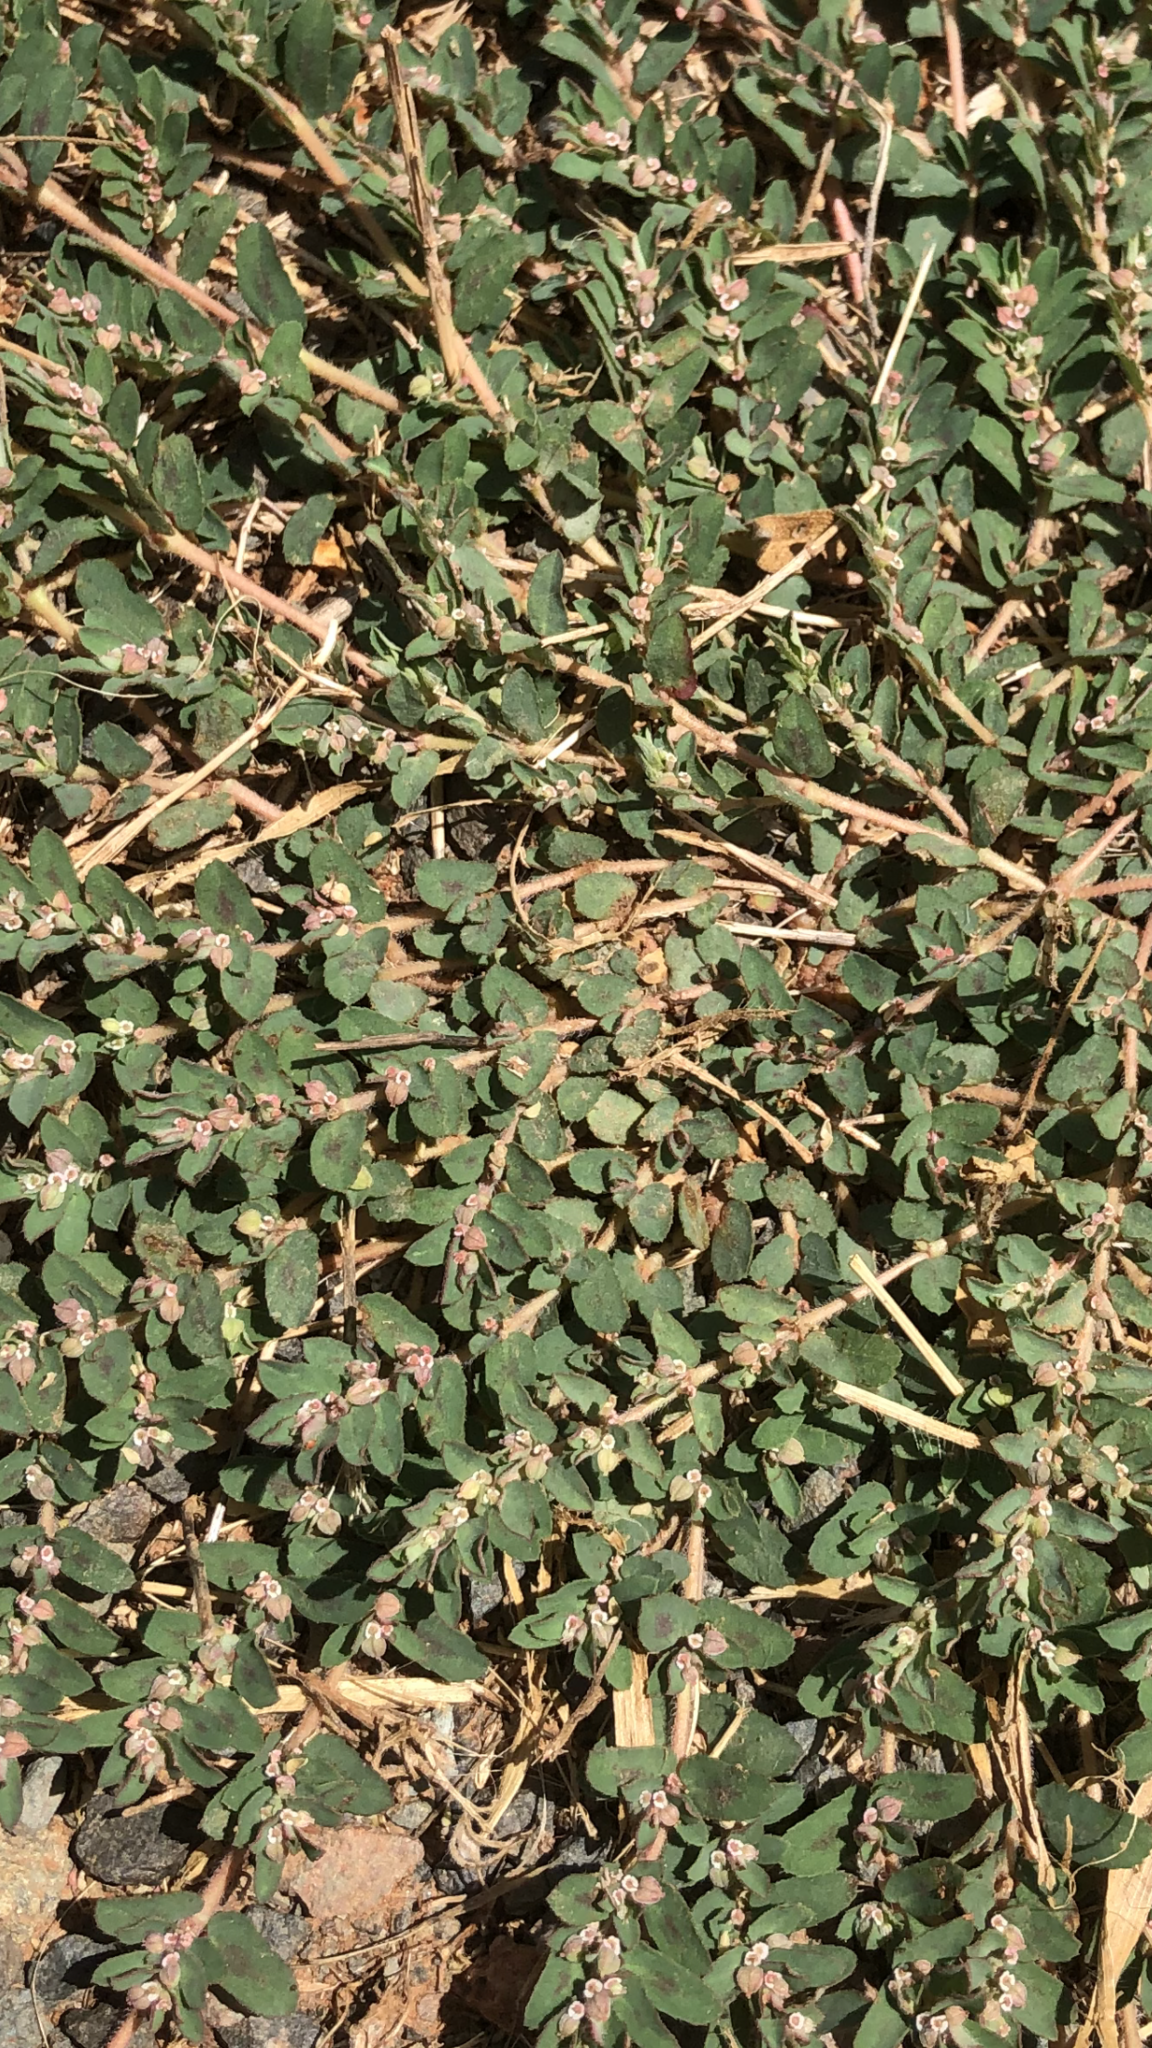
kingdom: Plantae
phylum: Tracheophyta
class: Magnoliopsida
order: Malpighiales
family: Euphorbiaceae
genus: Euphorbia
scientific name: Euphorbia maculata
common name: Spotted spurge
